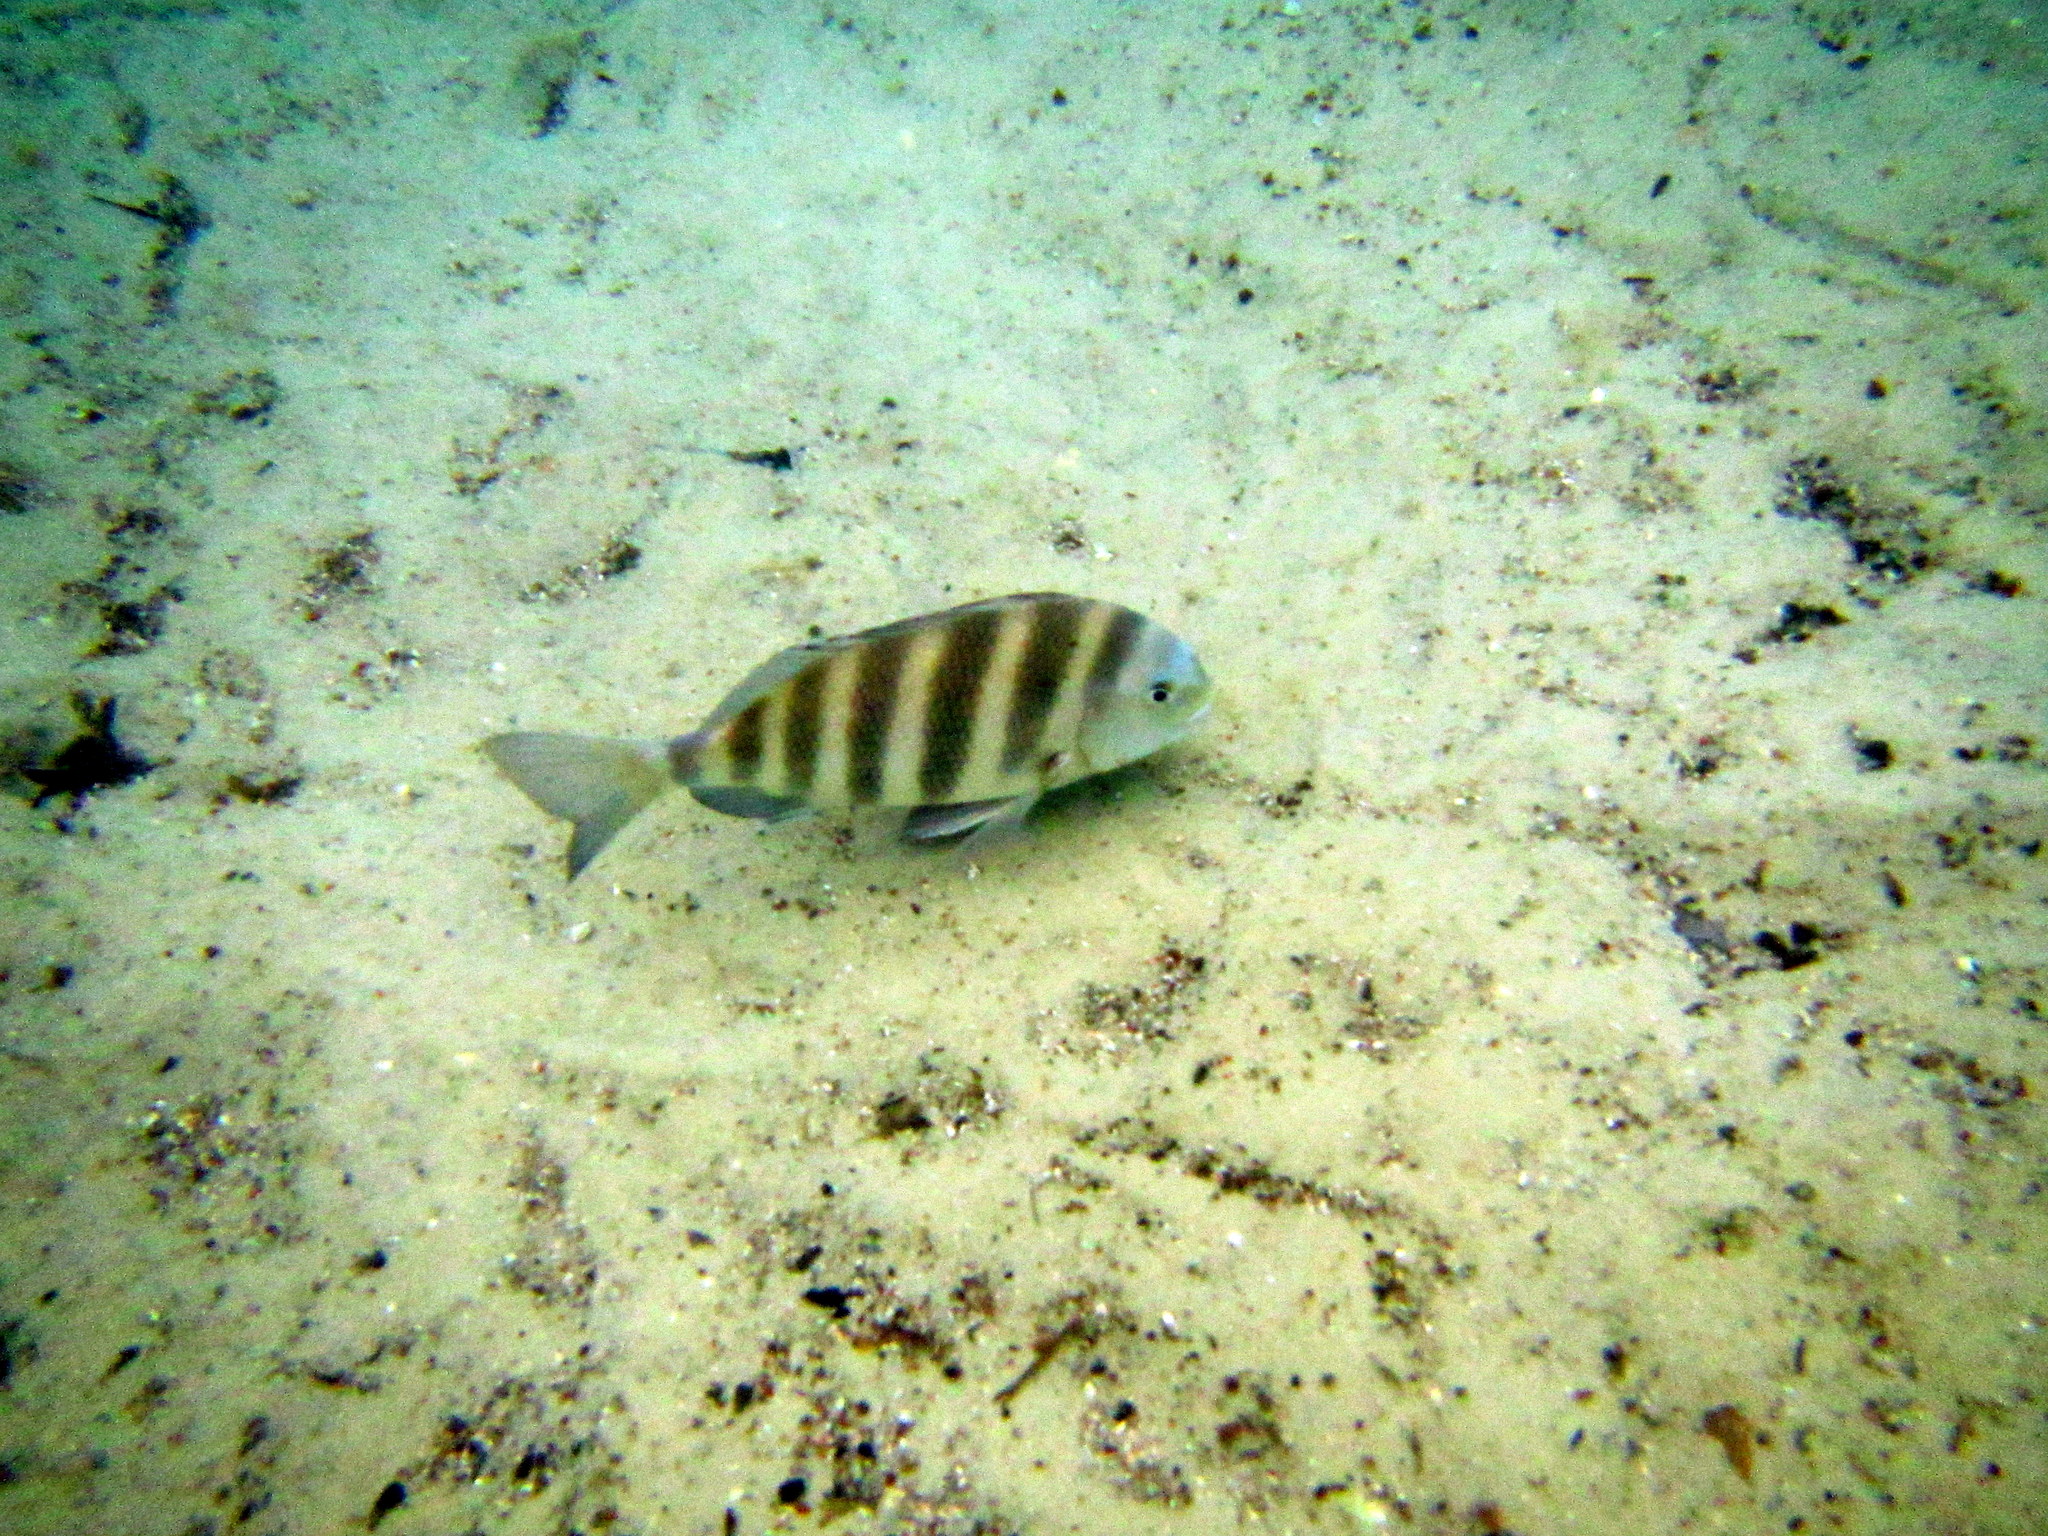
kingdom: Animalia
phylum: Chordata
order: Perciformes
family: Sparidae
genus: Archosargus
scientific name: Archosargus probatocephalus
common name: Sheepshead
